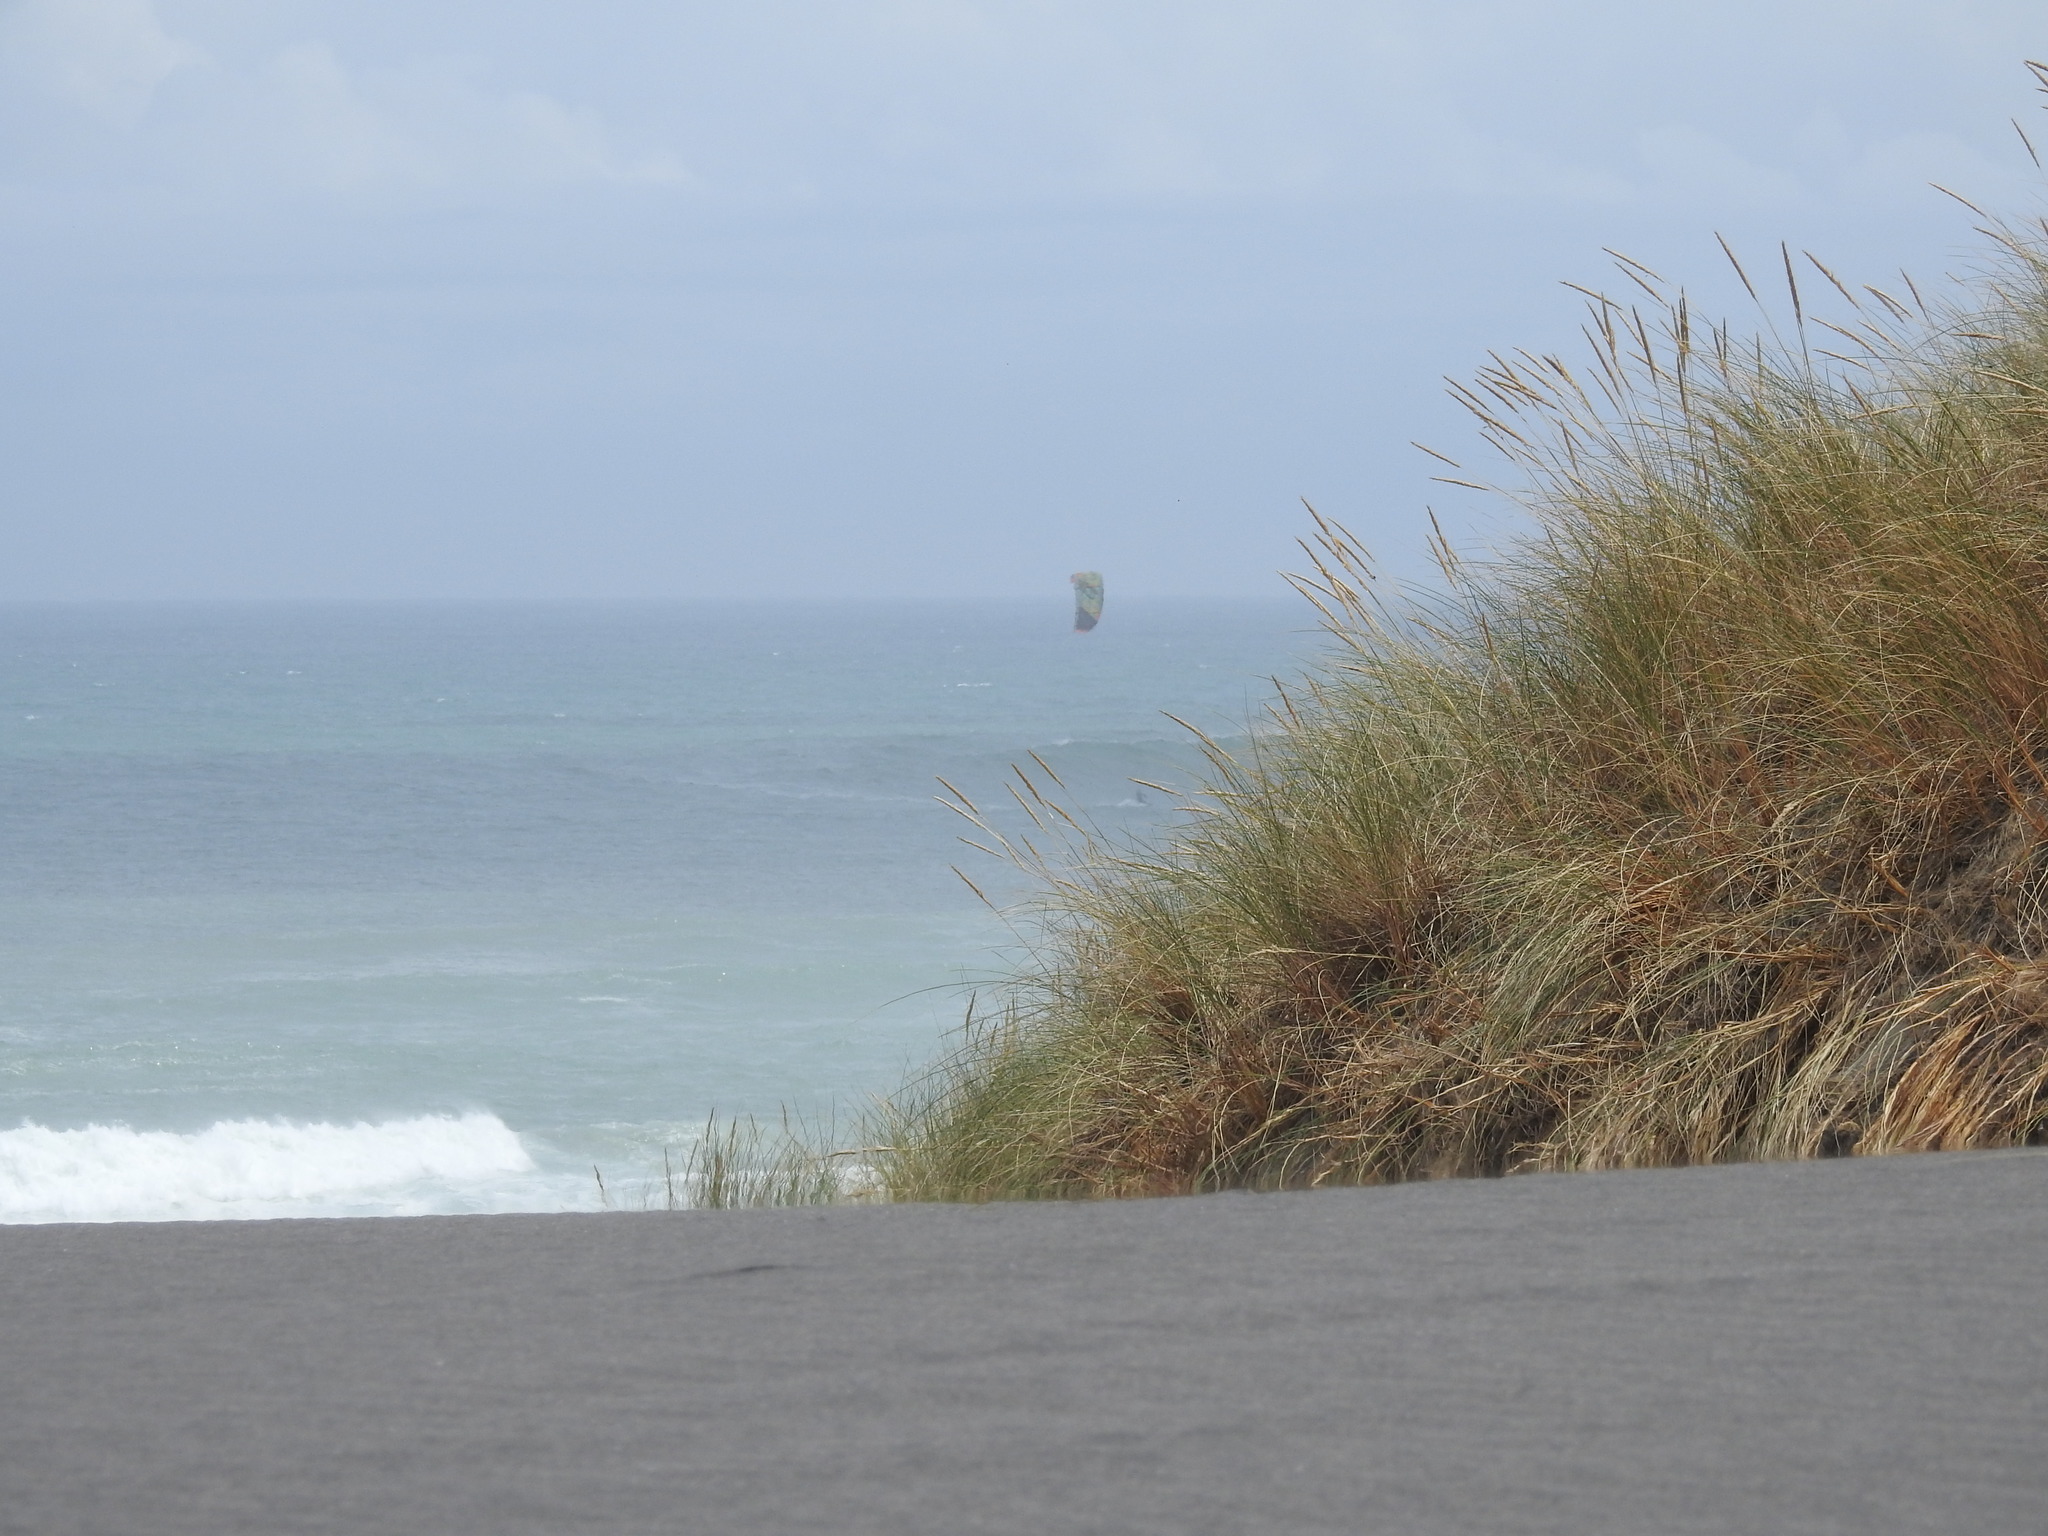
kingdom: Animalia
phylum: Chordata
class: Aves
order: Charadriiformes
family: Charadriidae
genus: Anarhynchus
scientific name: Anarhynchus
